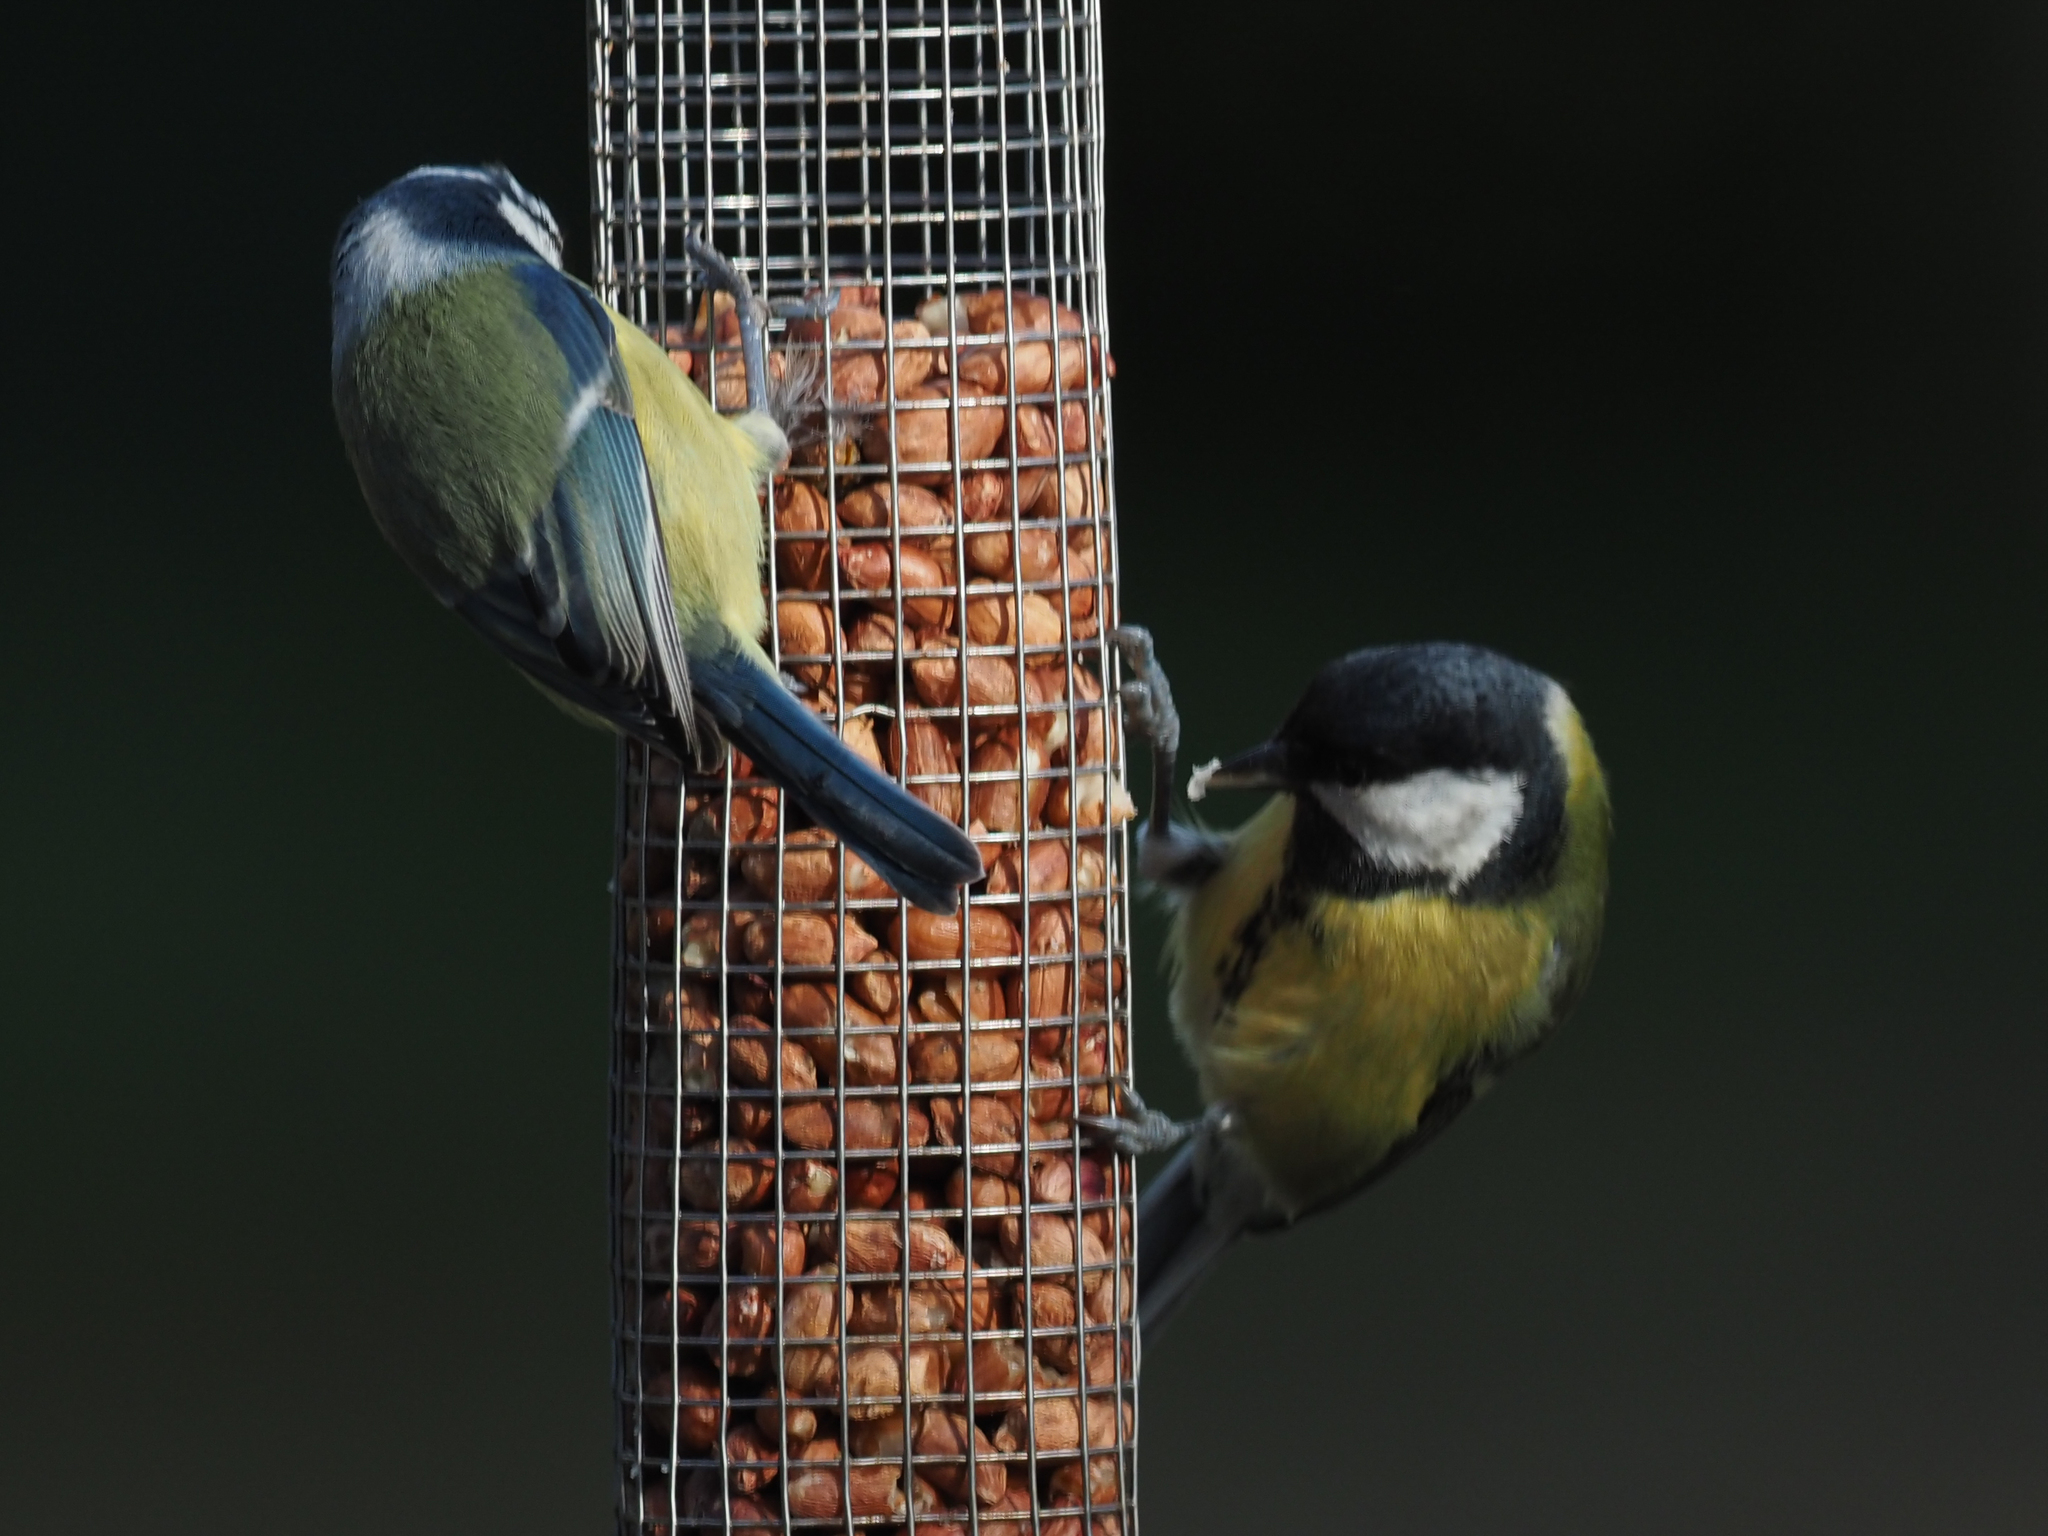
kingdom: Animalia
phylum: Chordata
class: Aves
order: Passeriformes
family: Paridae
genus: Parus
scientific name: Parus major
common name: Great tit
